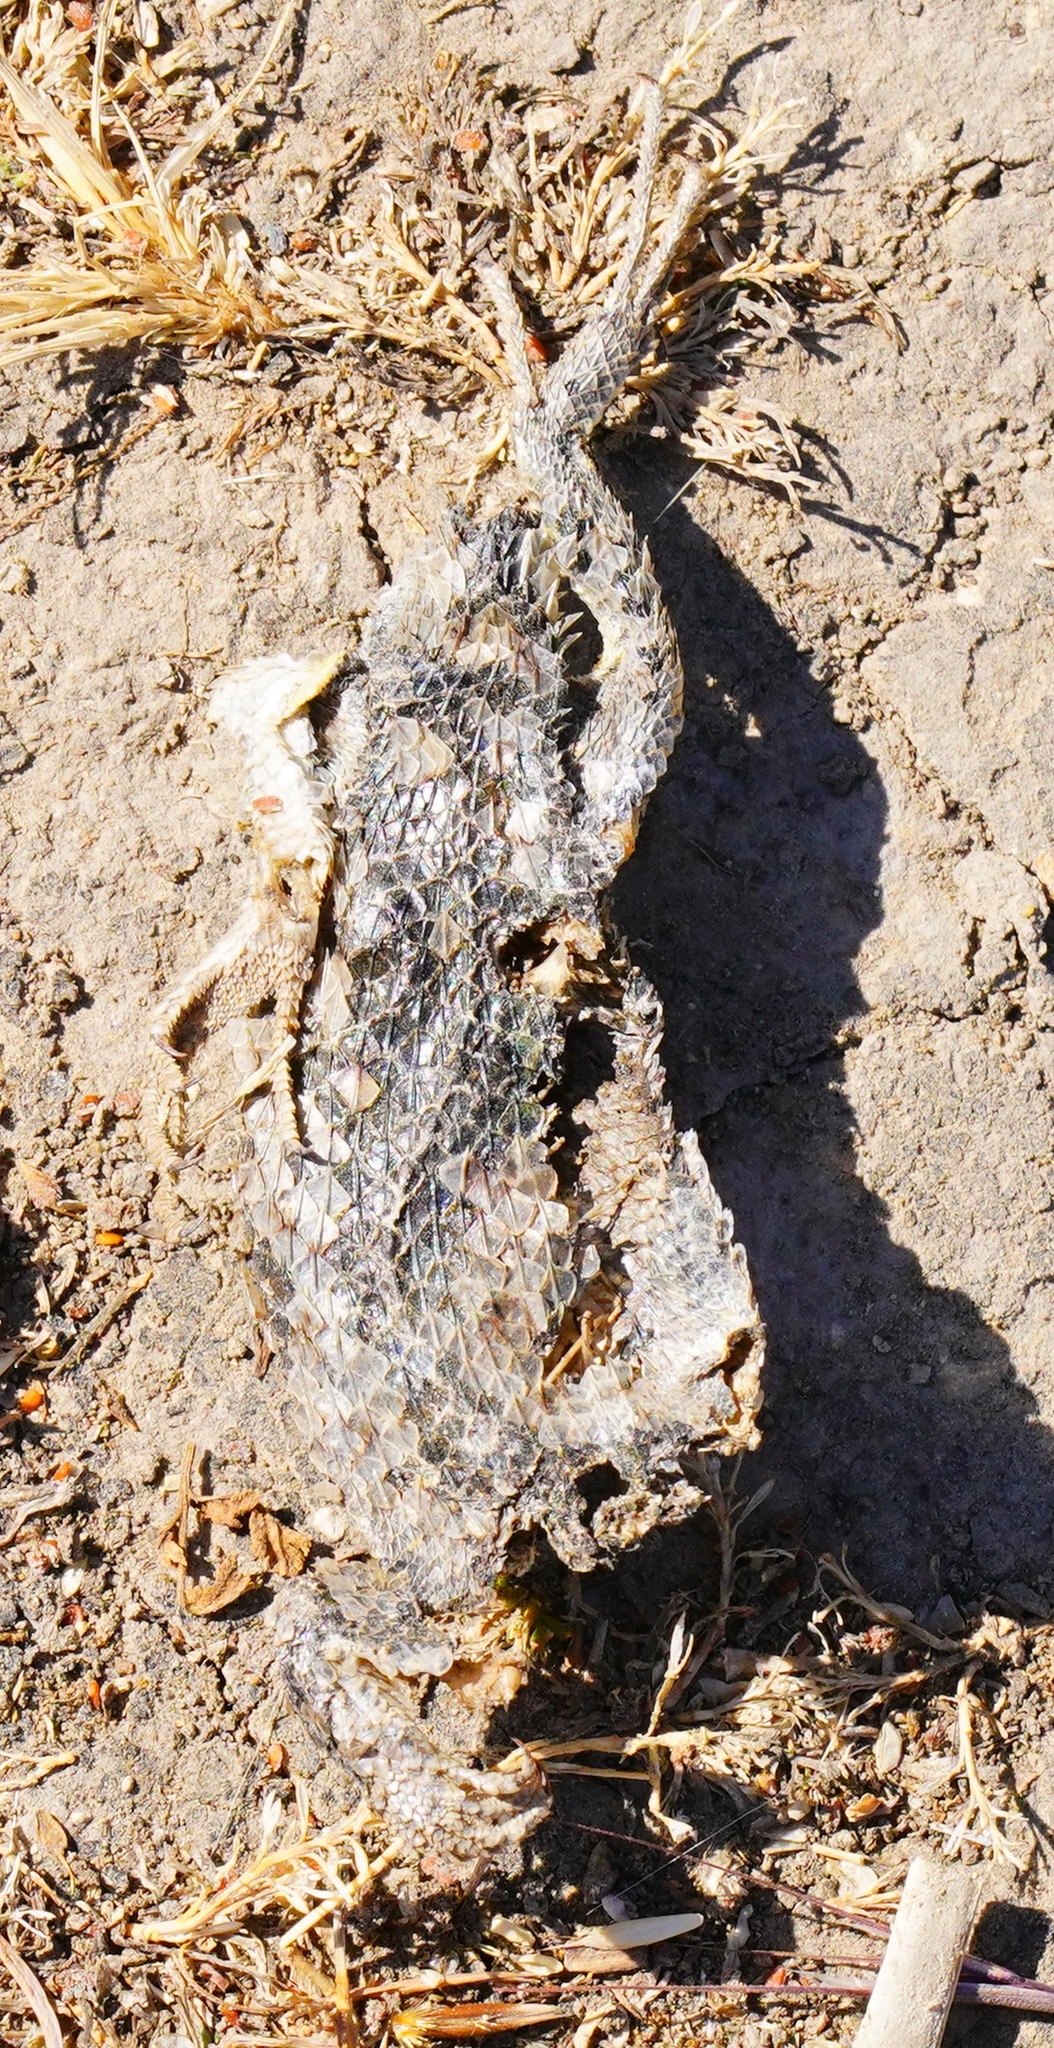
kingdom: Animalia
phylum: Chordata
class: Squamata
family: Phrynosomatidae
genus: Sceloporus
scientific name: Sceloporus occidentalis
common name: Western fence lizard
